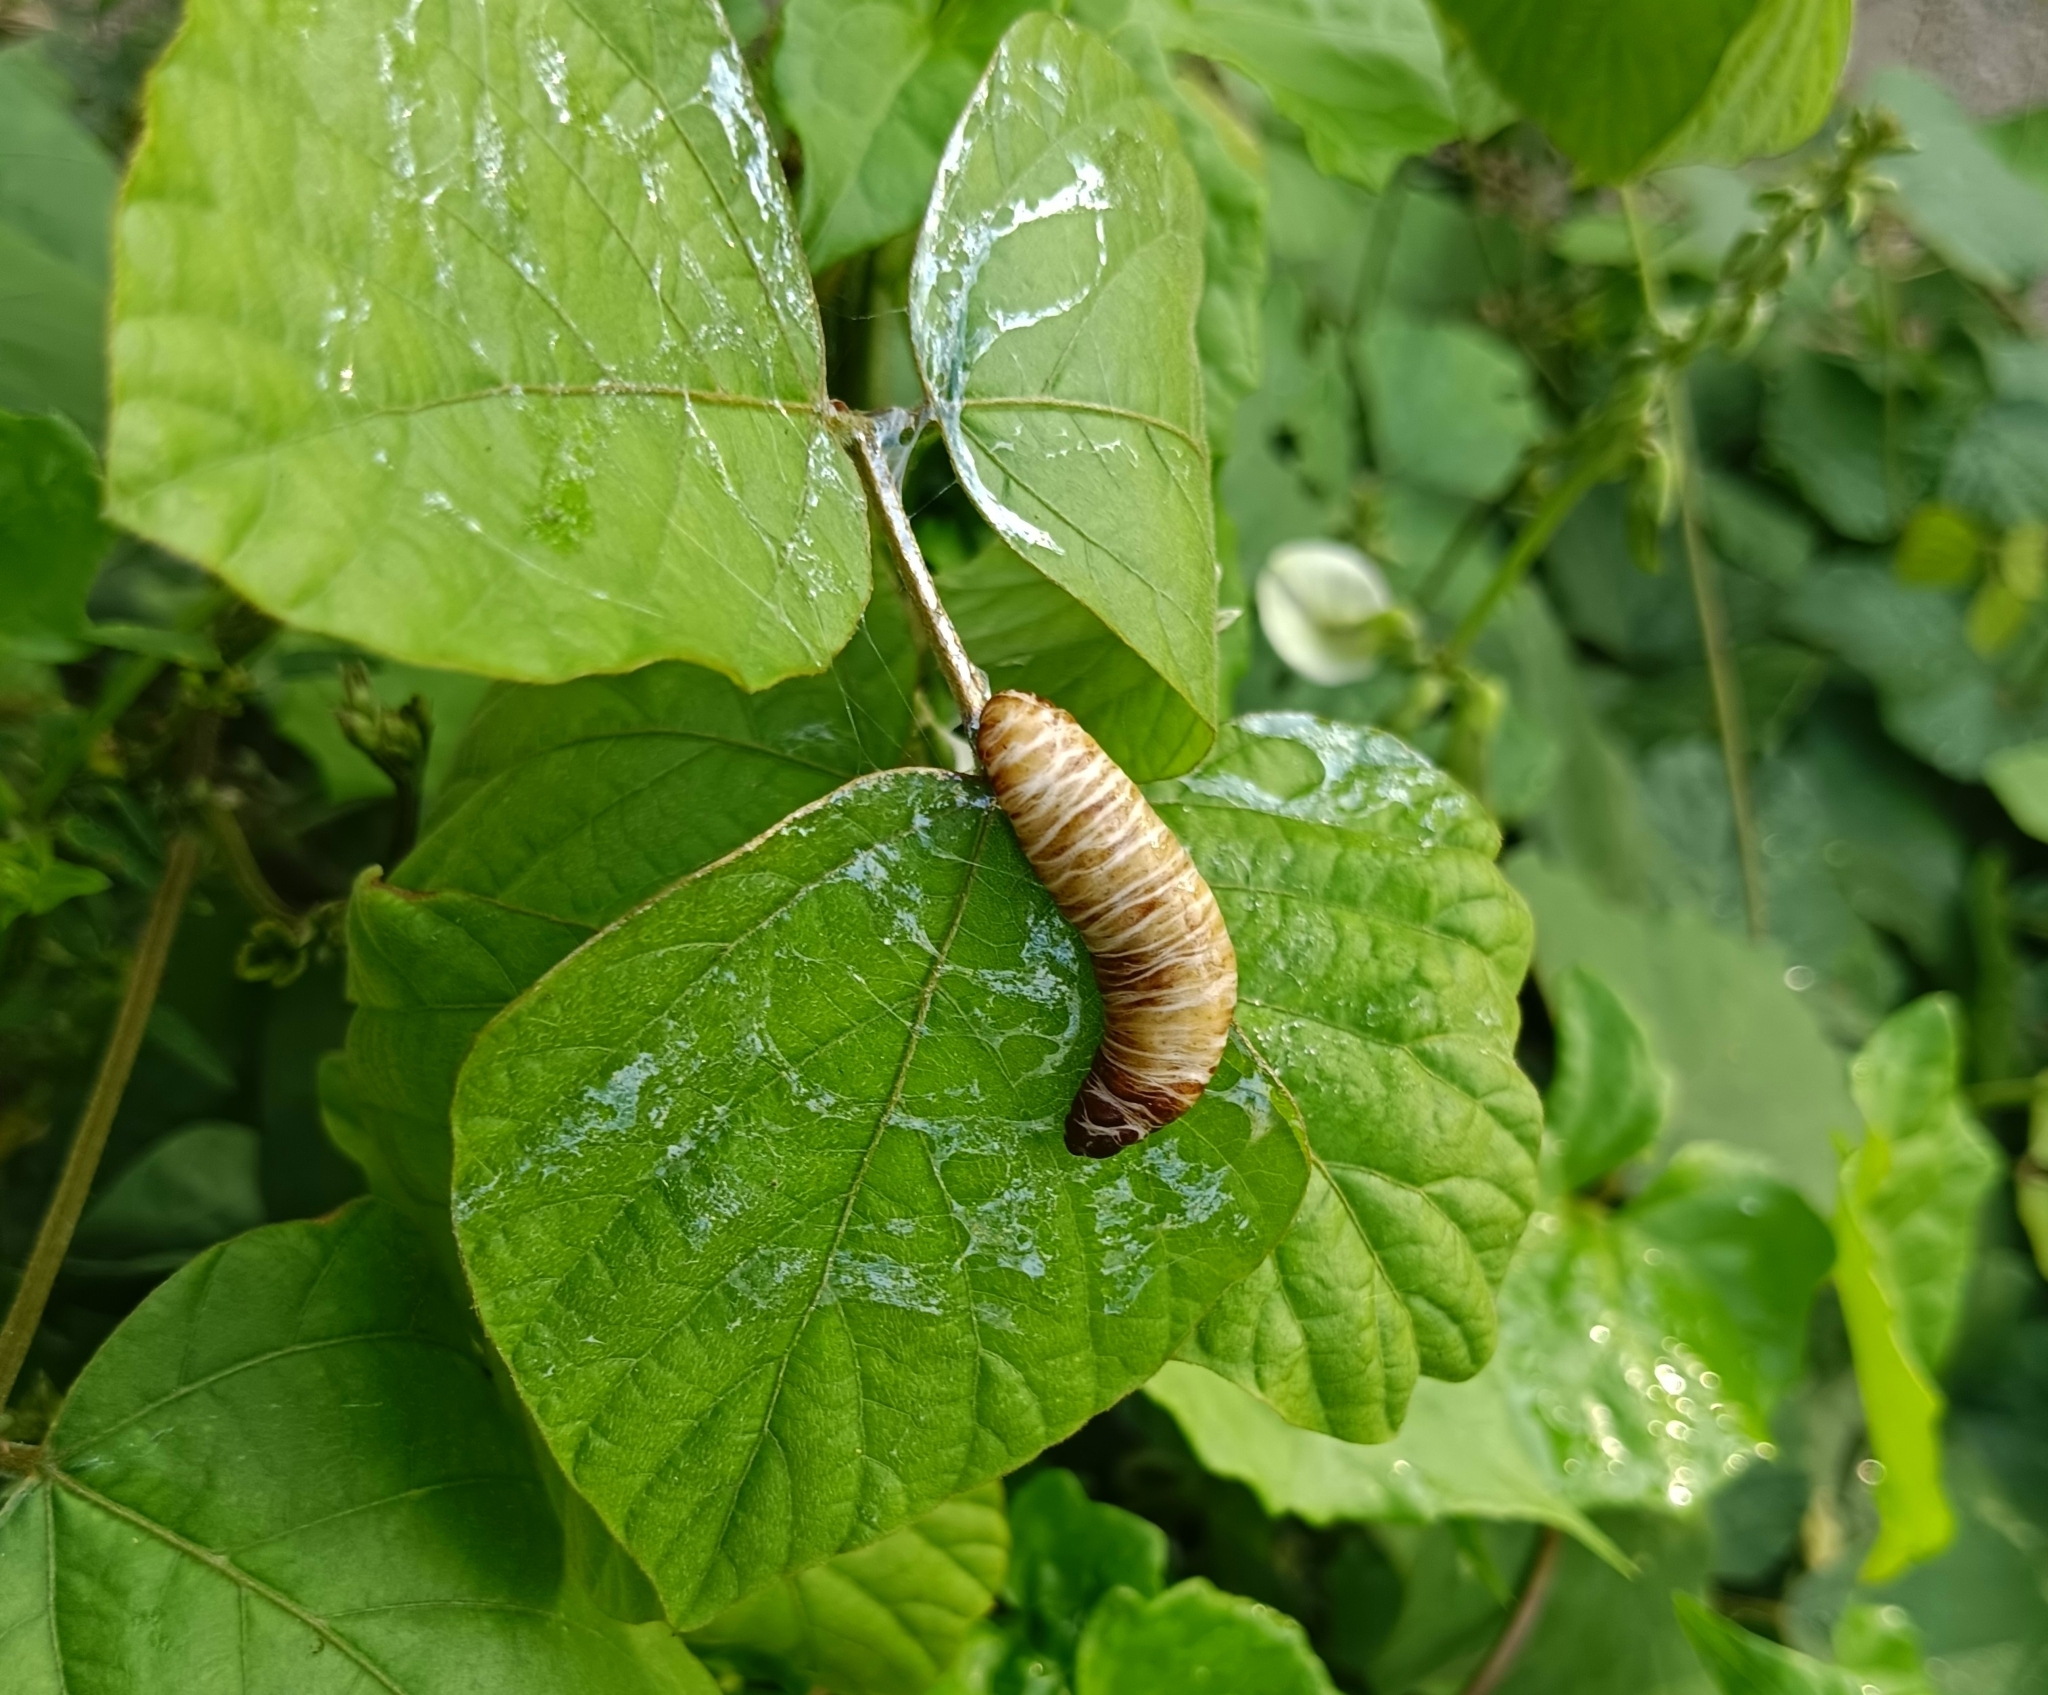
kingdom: Animalia
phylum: Mollusca
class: Gastropoda
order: Systellommatophora
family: Veronicellidae
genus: Laevicaulis
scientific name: Laevicaulis haroldi
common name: Caterpillar slug
